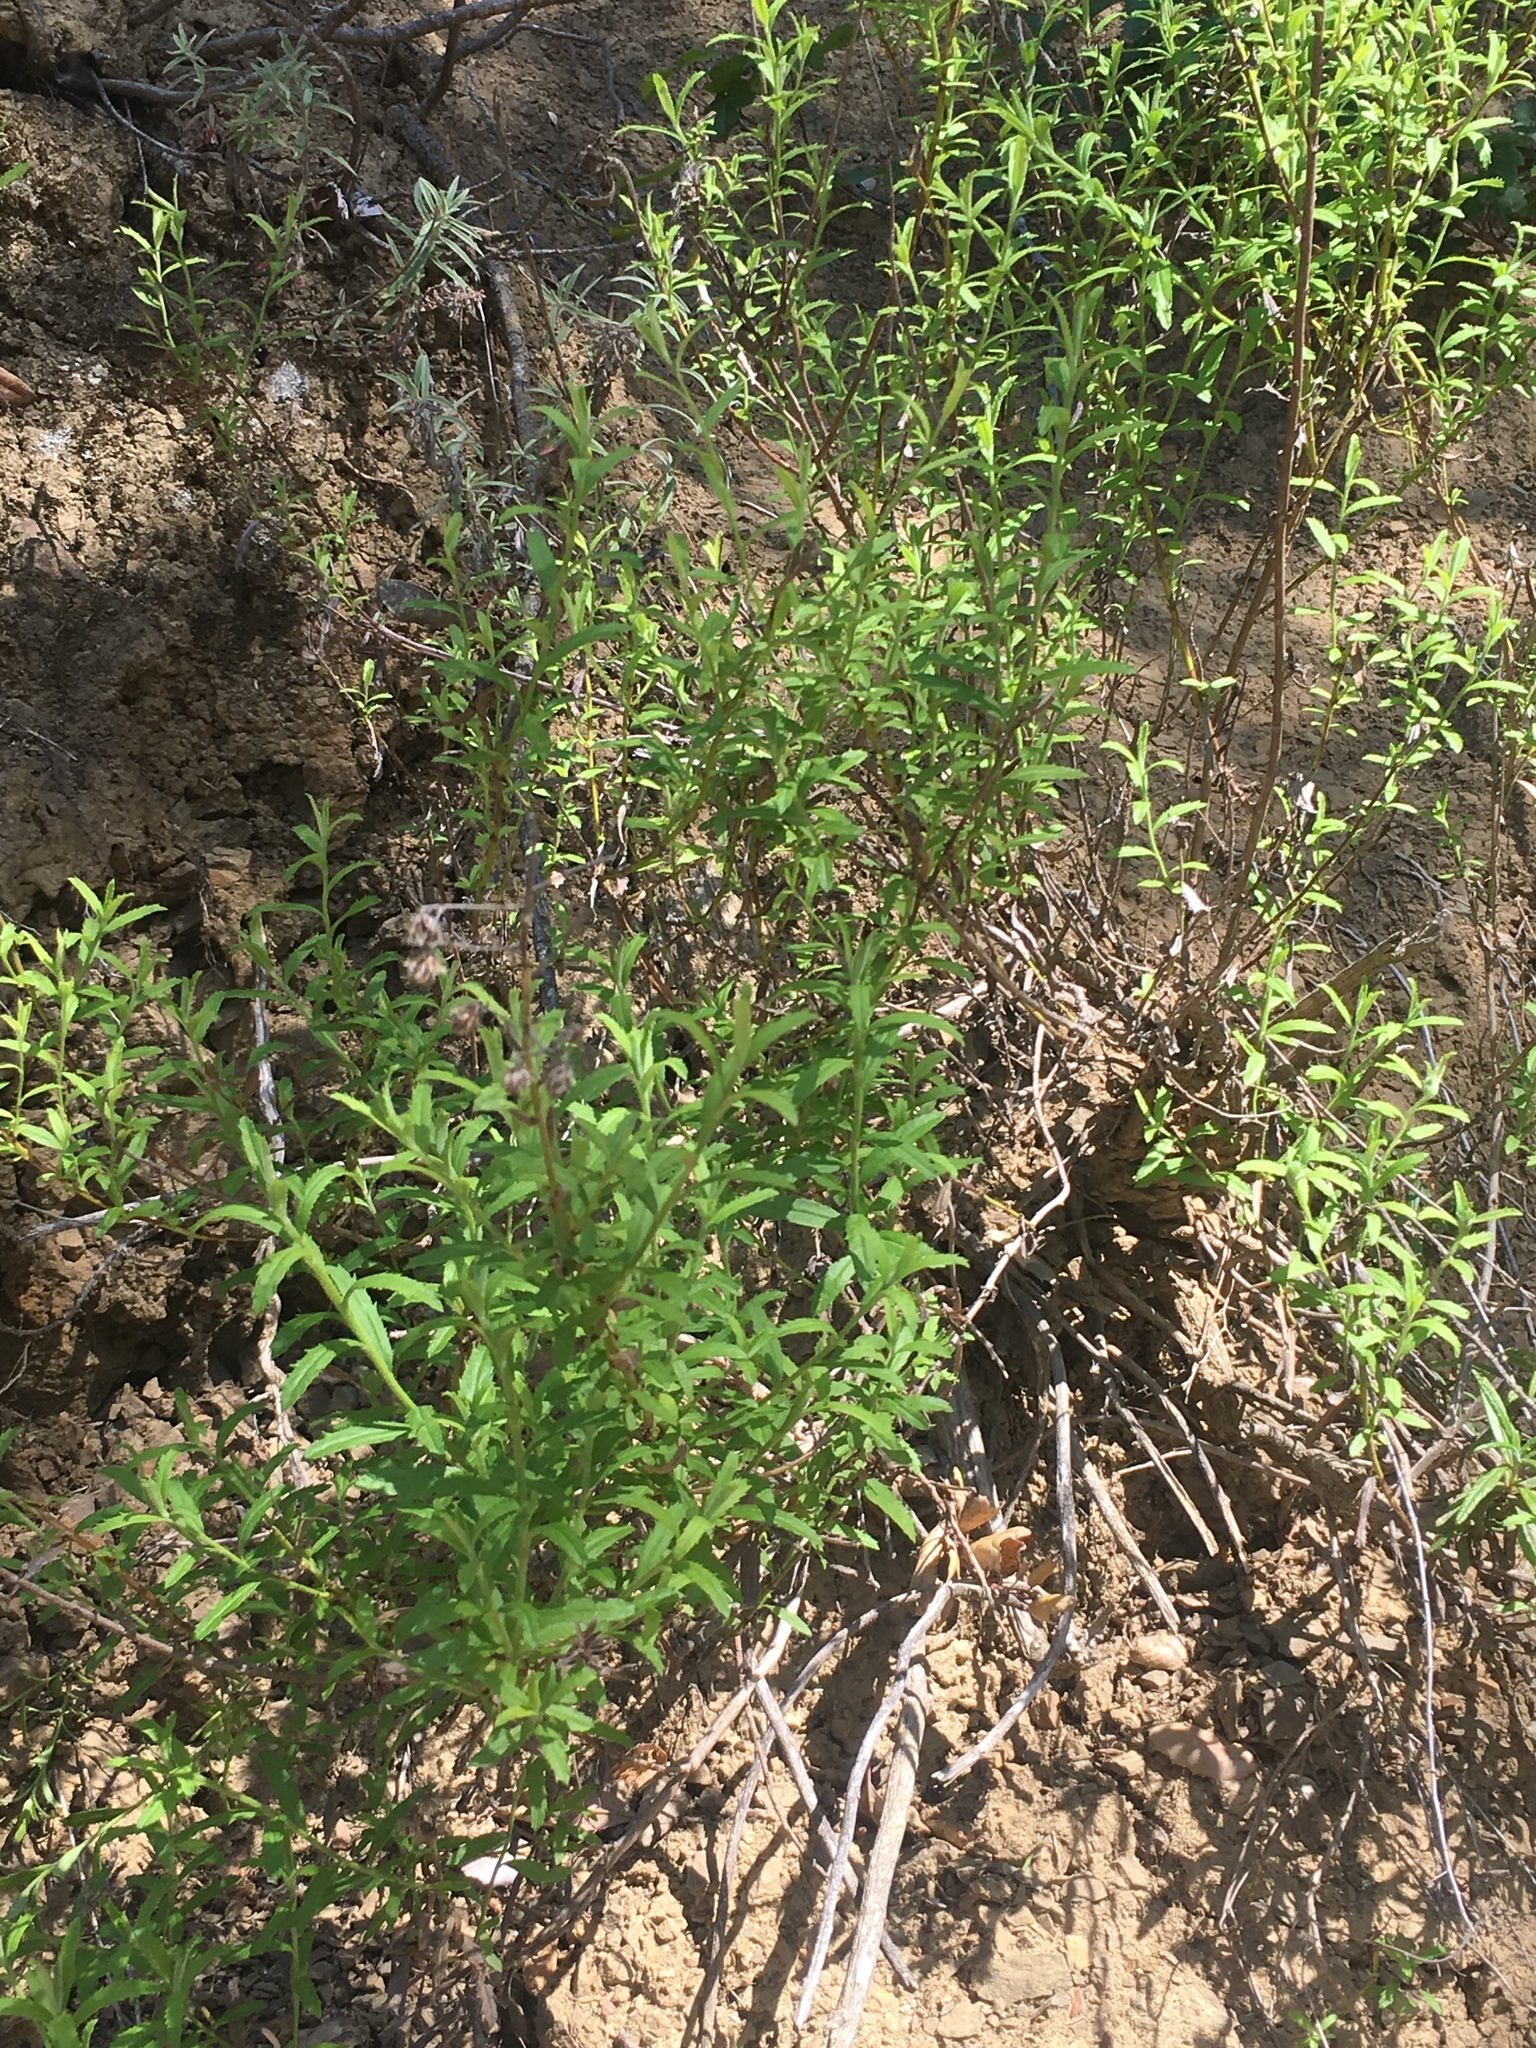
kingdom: Plantae
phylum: Tracheophyta
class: Magnoliopsida
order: Asterales
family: Asteraceae
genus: Baccharis
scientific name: Baccharis plummerae
